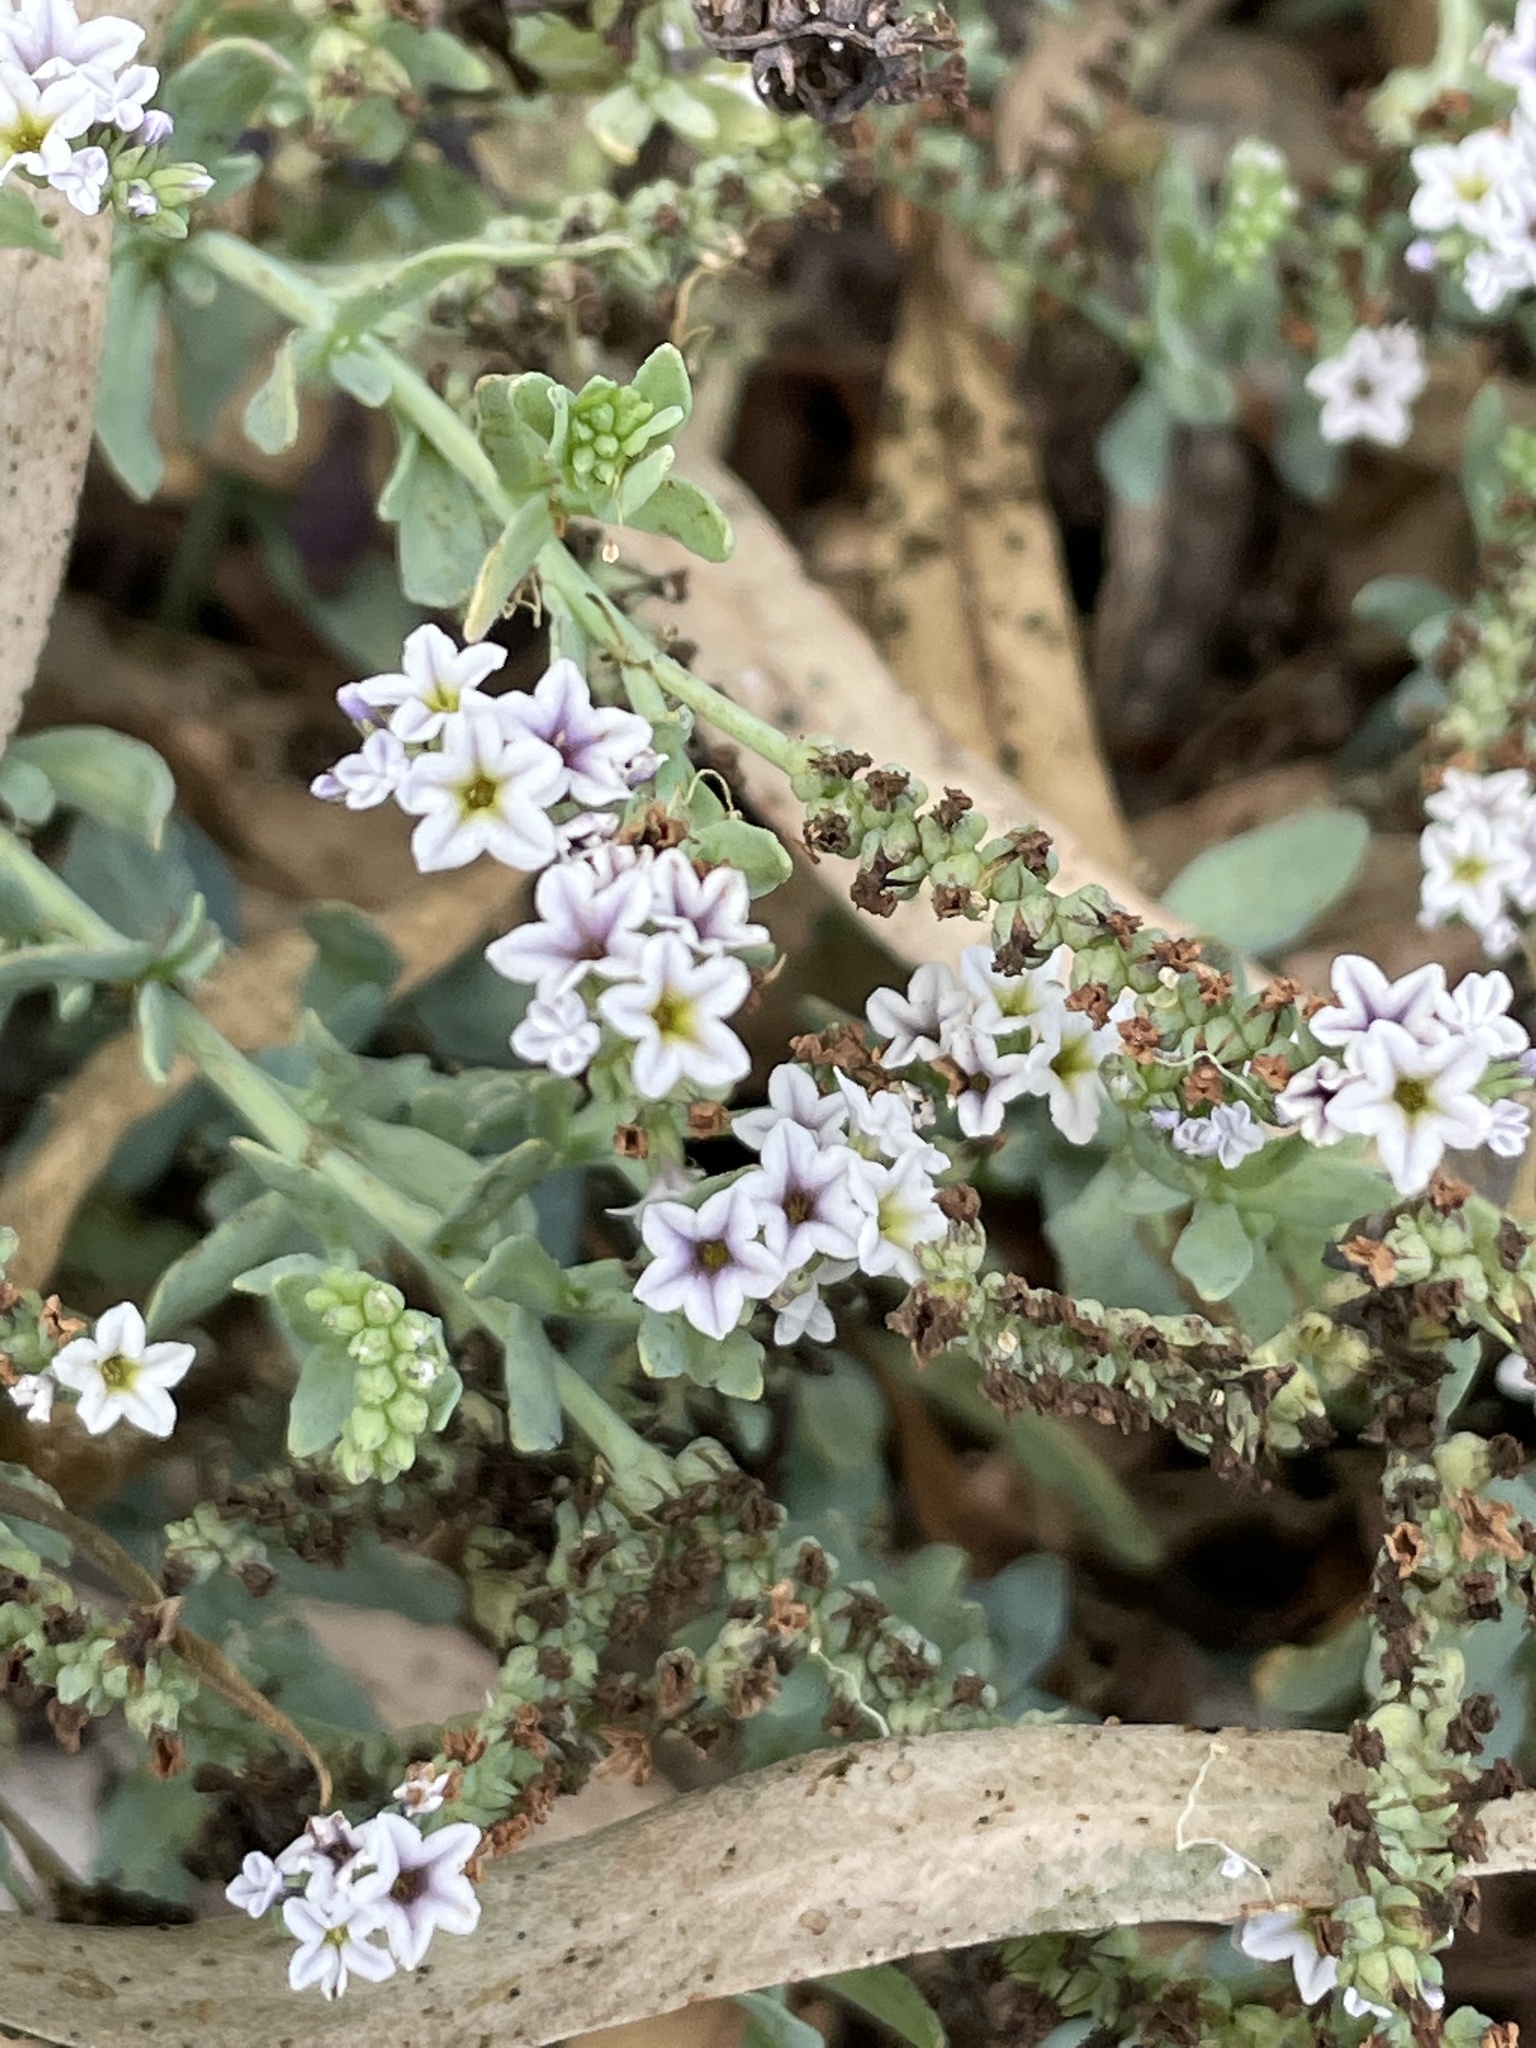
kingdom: Plantae
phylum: Tracheophyta
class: Magnoliopsida
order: Boraginales
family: Heliotropiaceae
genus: Heliotropium
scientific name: Heliotropium curassavicum
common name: Seaside heliotrope
